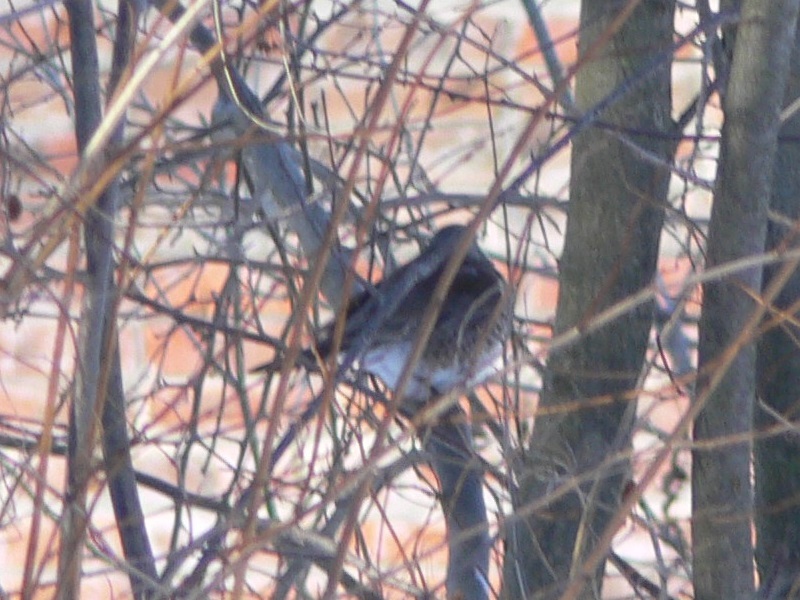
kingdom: Animalia
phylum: Chordata
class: Aves
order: Passeriformes
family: Turdidae
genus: Turdus
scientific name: Turdus pilaris
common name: Fieldfare
